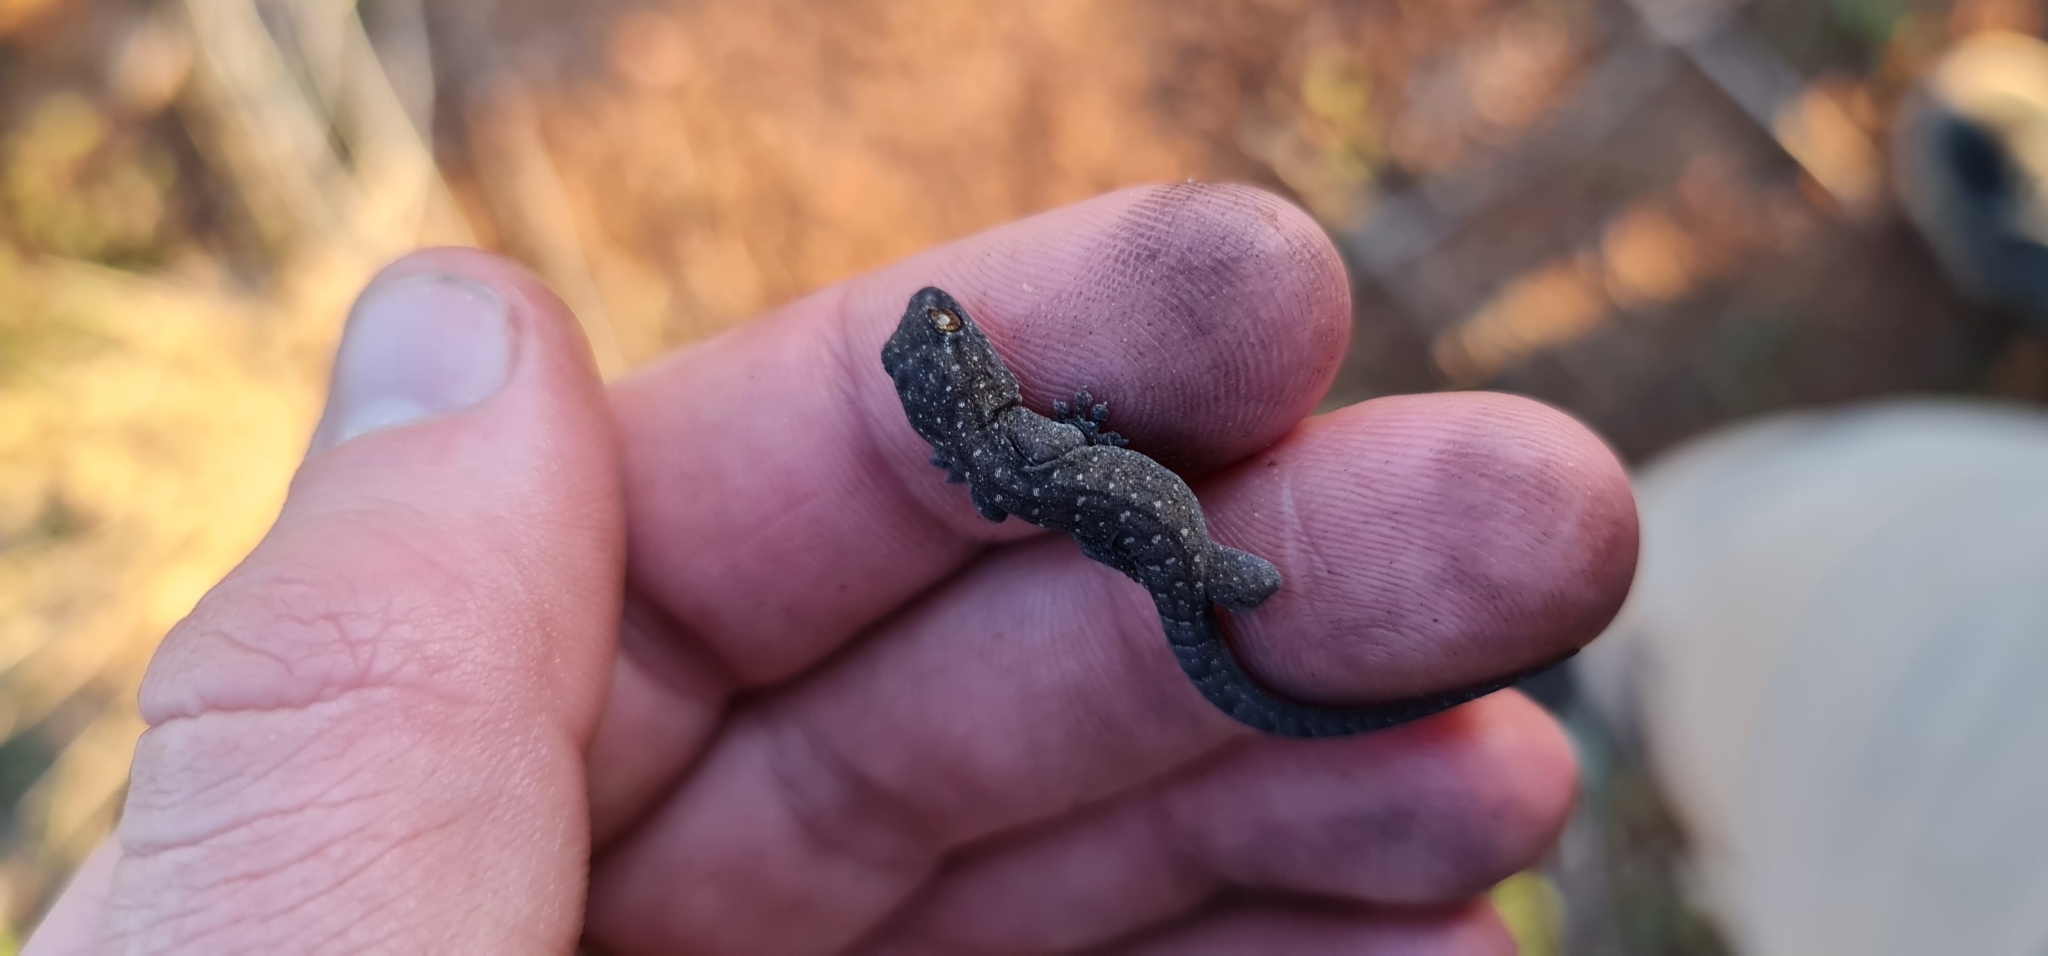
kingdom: Animalia
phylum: Chordata
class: Squamata
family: Gekkonidae
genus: Gehyra
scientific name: Gehyra versicolor
